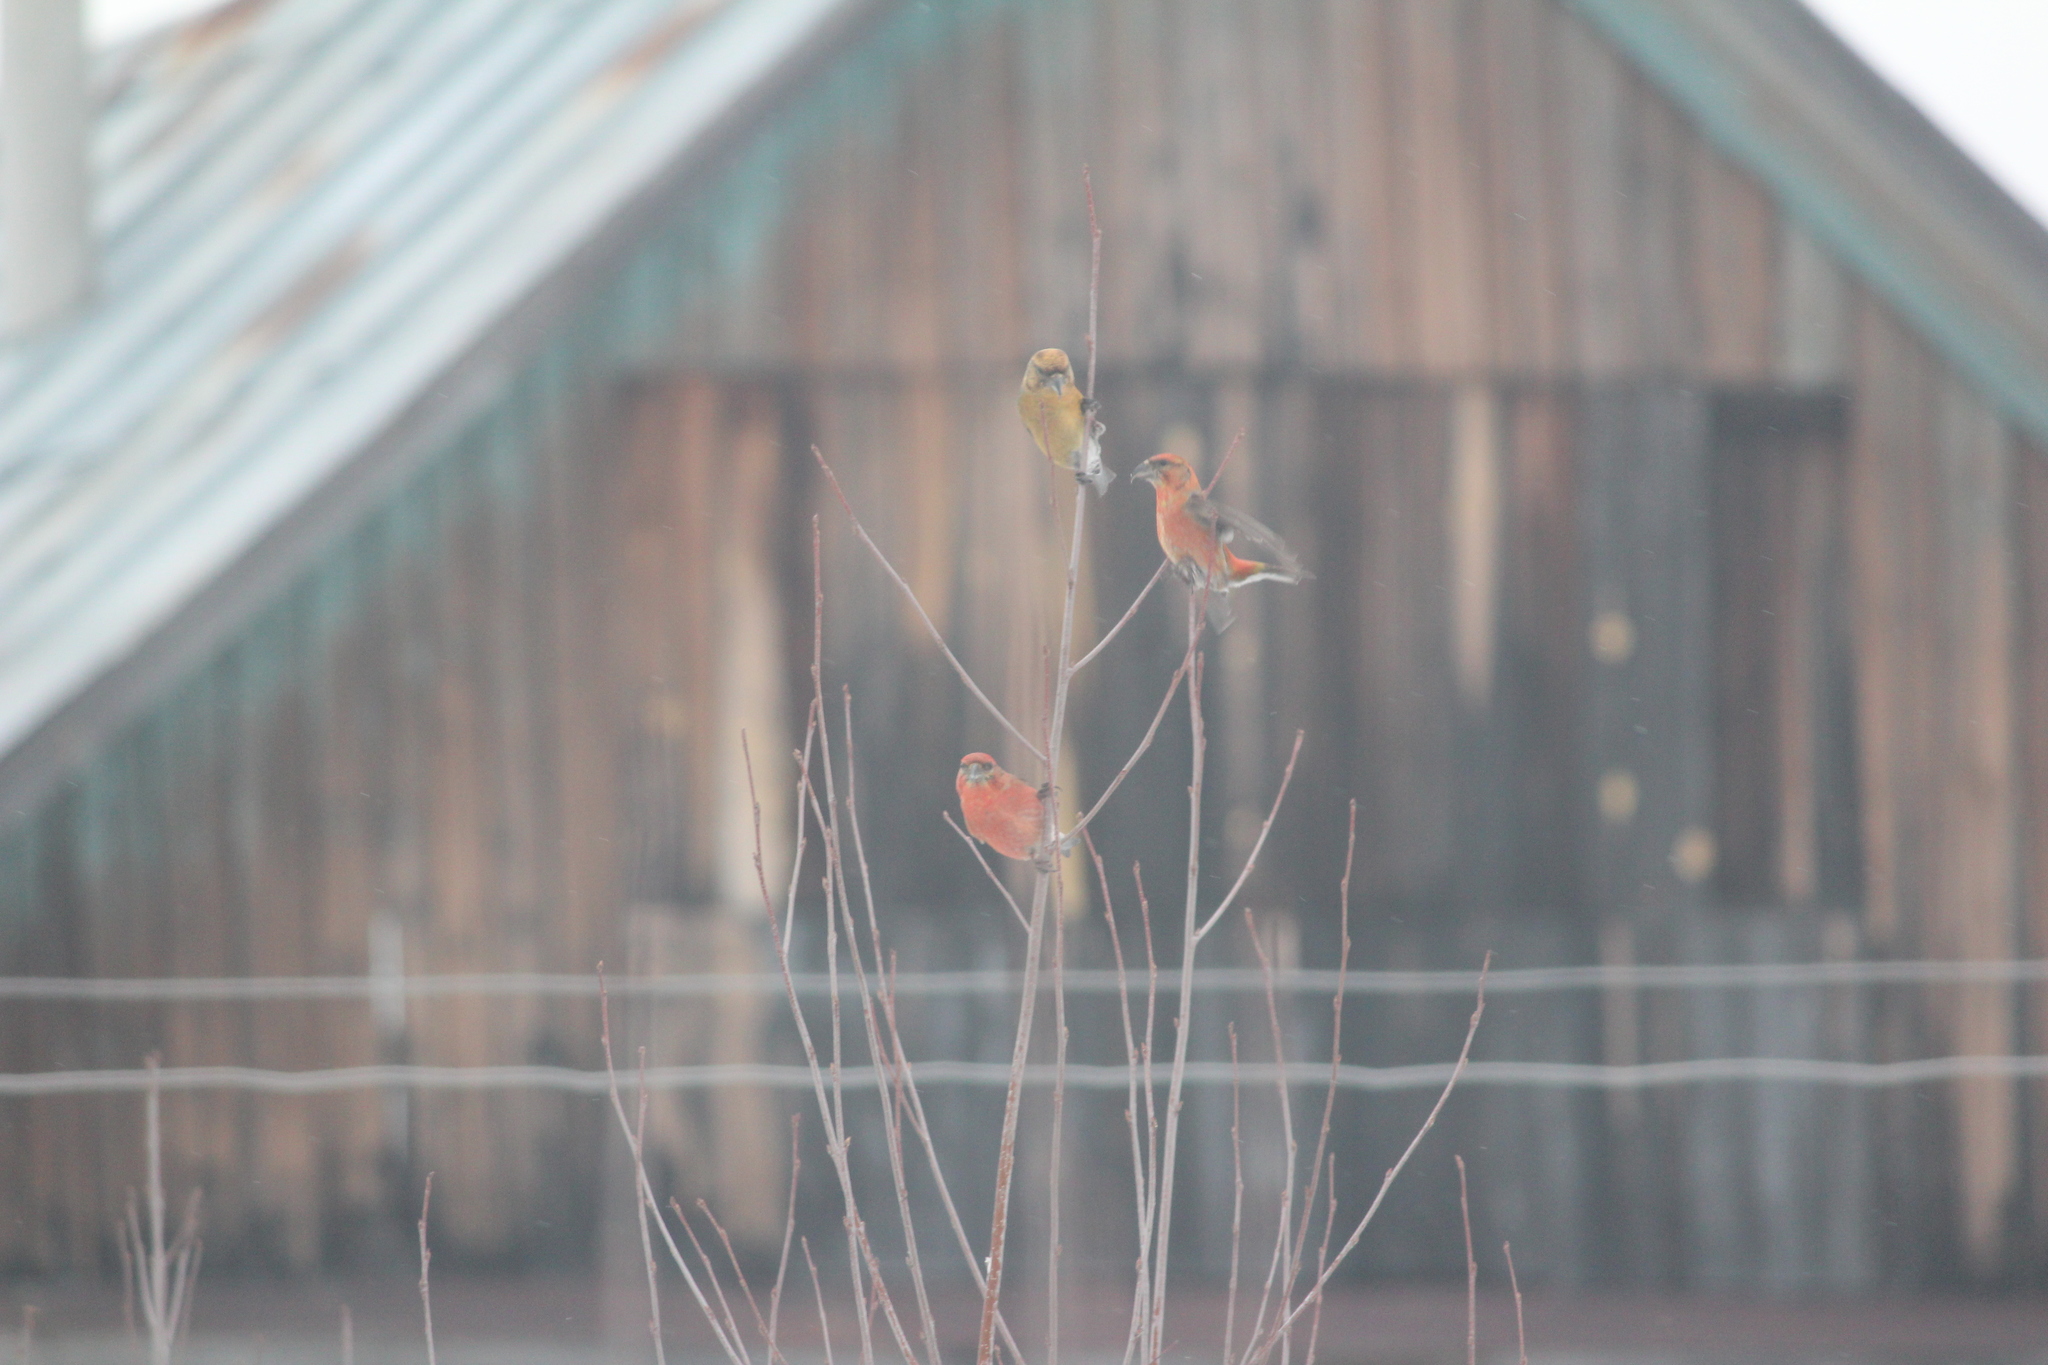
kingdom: Animalia
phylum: Chordata
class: Aves
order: Passeriformes
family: Fringillidae
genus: Loxia
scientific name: Loxia curvirostra
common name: Red crossbill
